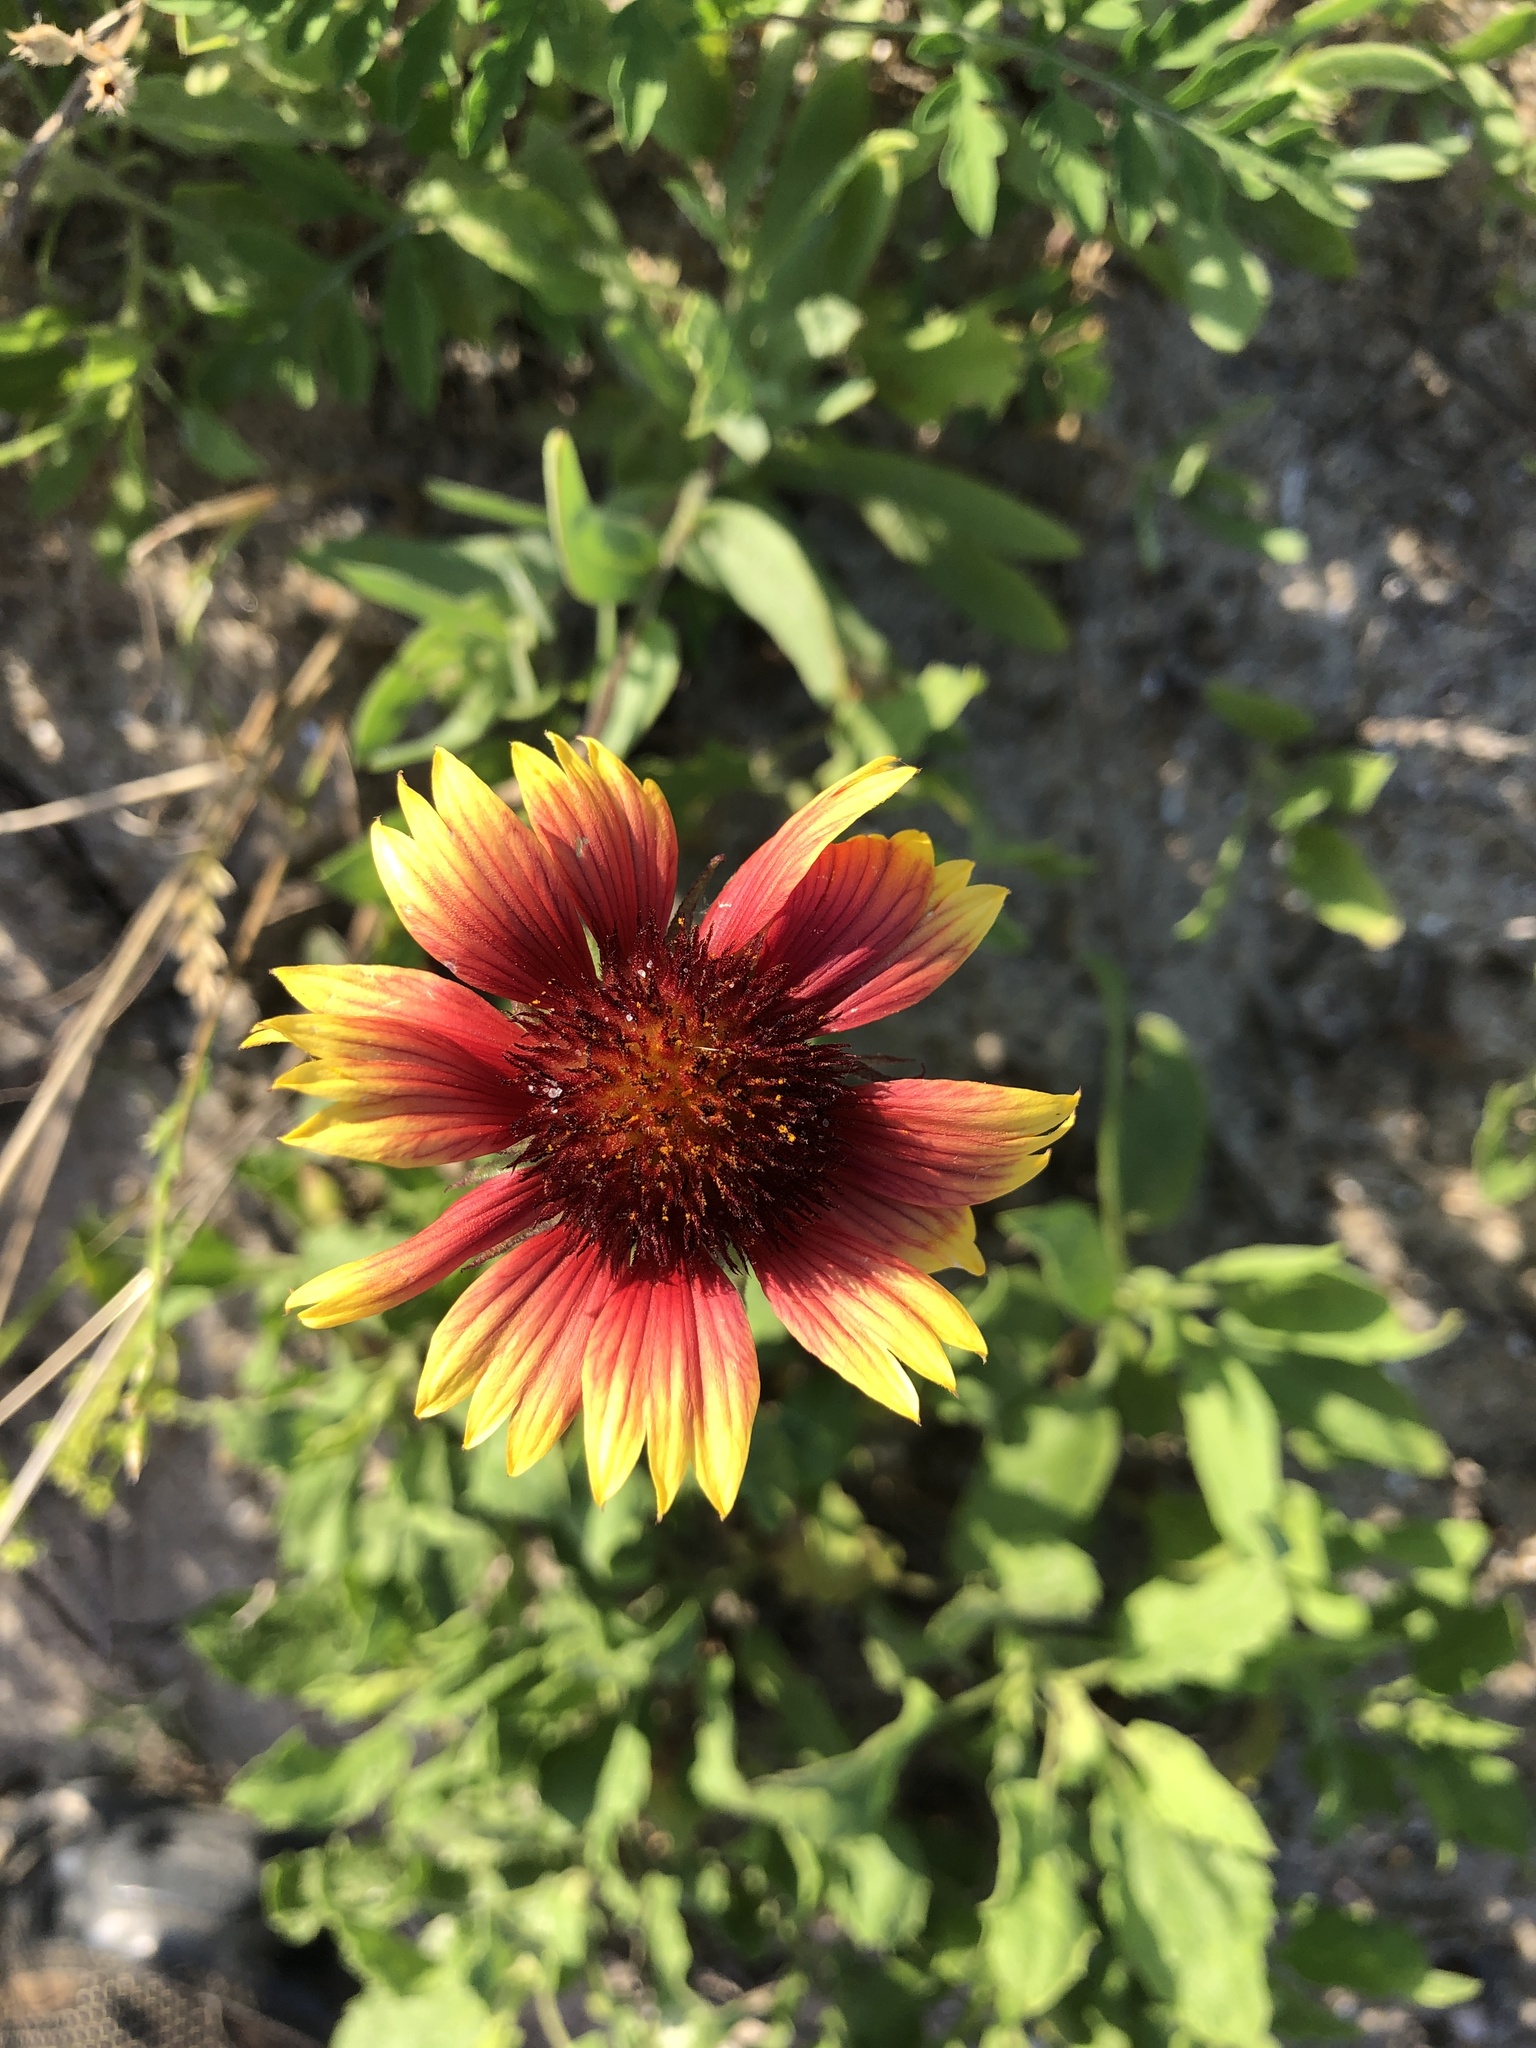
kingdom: Plantae
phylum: Tracheophyta
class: Magnoliopsida
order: Asterales
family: Asteraceae
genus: Gaillardia
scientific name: Gaillardia pulchella
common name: Firewheel
